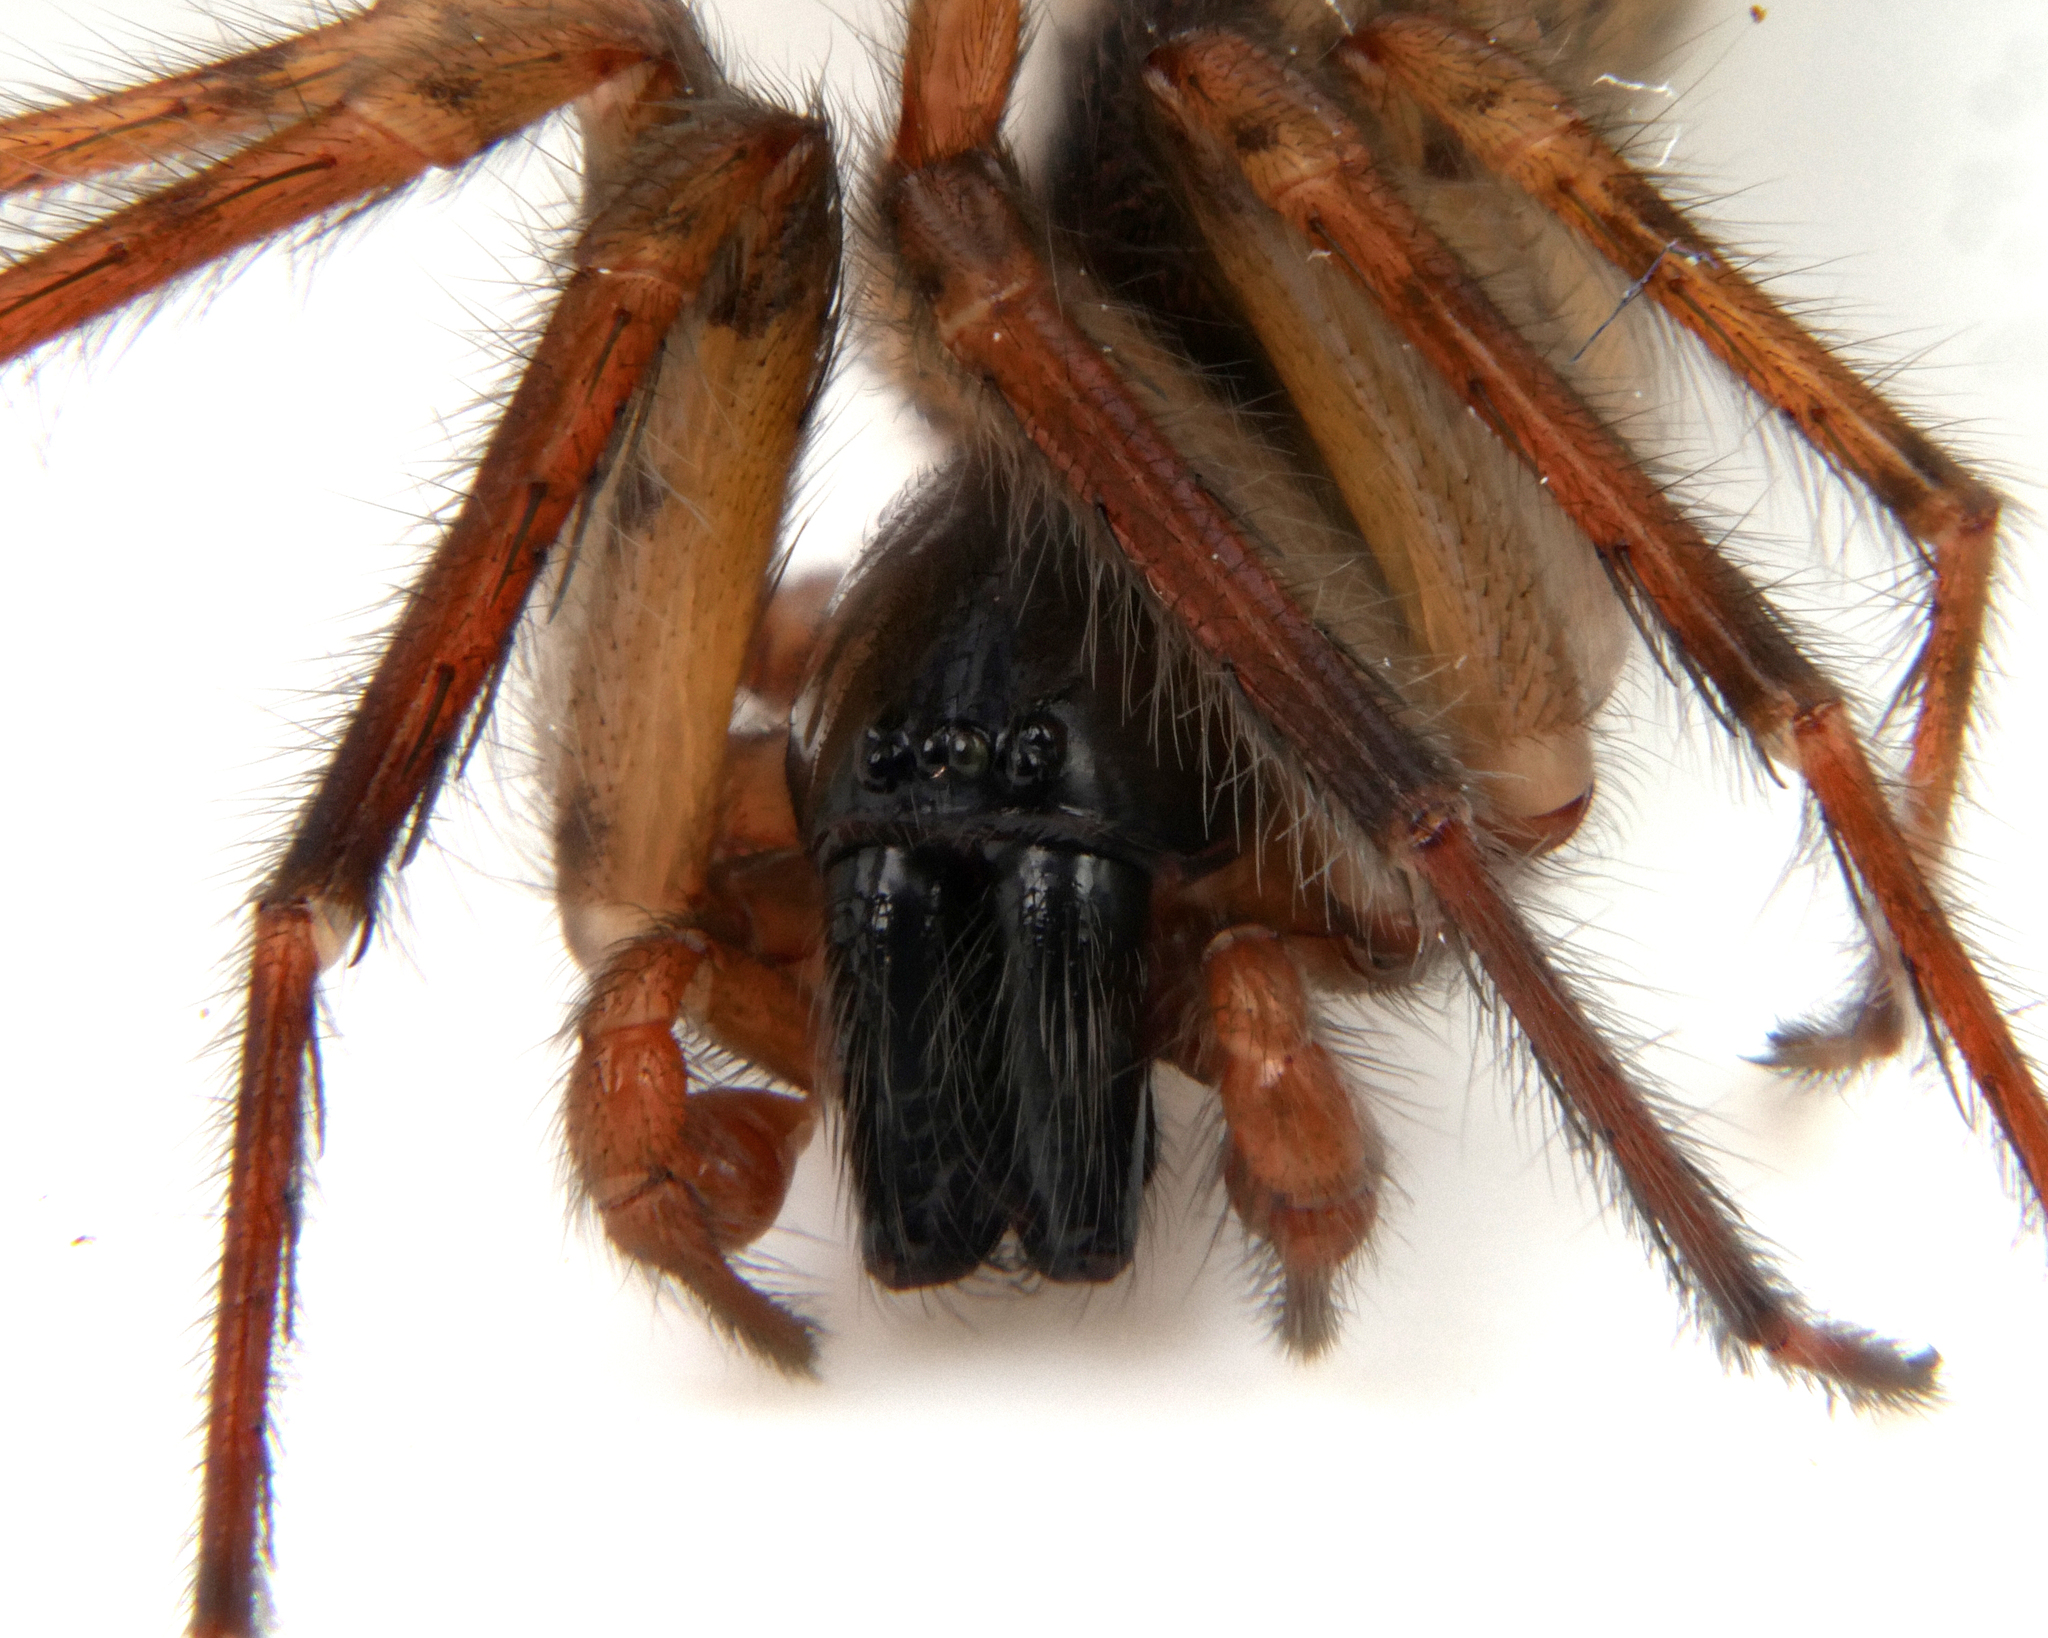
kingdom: Animalia
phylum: Arthropoda
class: Arachnida
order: Araneae
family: Segestriidae
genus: Segestria
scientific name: Segestria senoculata
